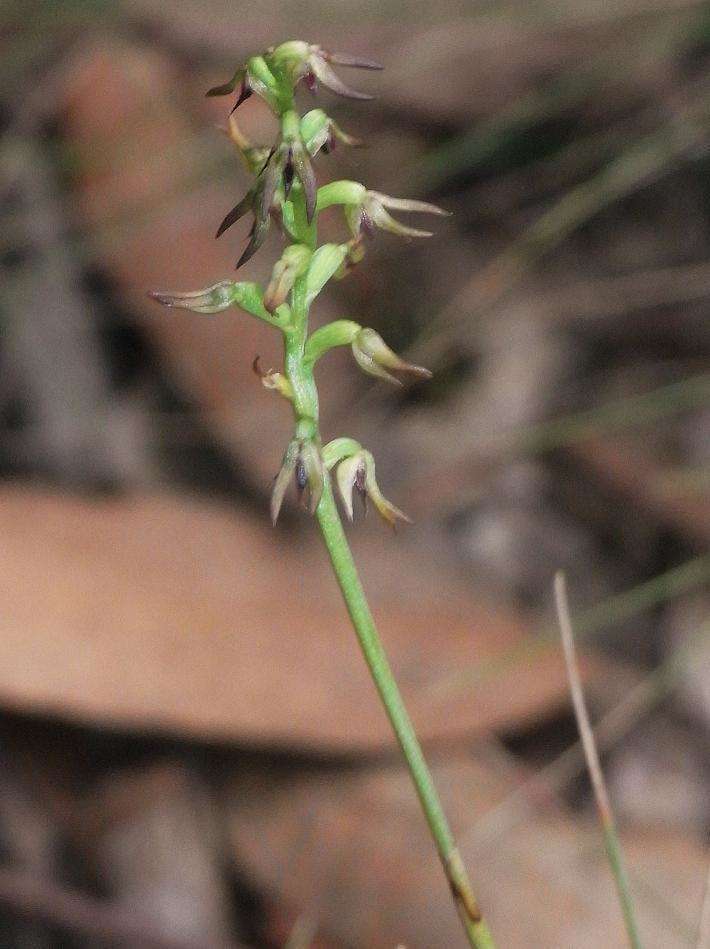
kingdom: Plantae
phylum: Tracheophyta
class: Liliopsida
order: Asparagales
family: Orchidaceae
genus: Genoplesium
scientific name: Genoplesium despectans
